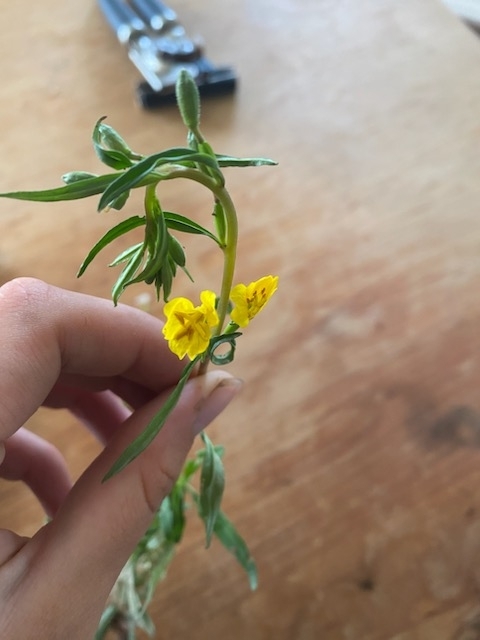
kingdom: Plantae
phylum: Tracheophyta
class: Magnoliopsida
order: Myrtales
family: Onagraceae
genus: Oenothera
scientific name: Oenothera perennis
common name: Small sundrops
